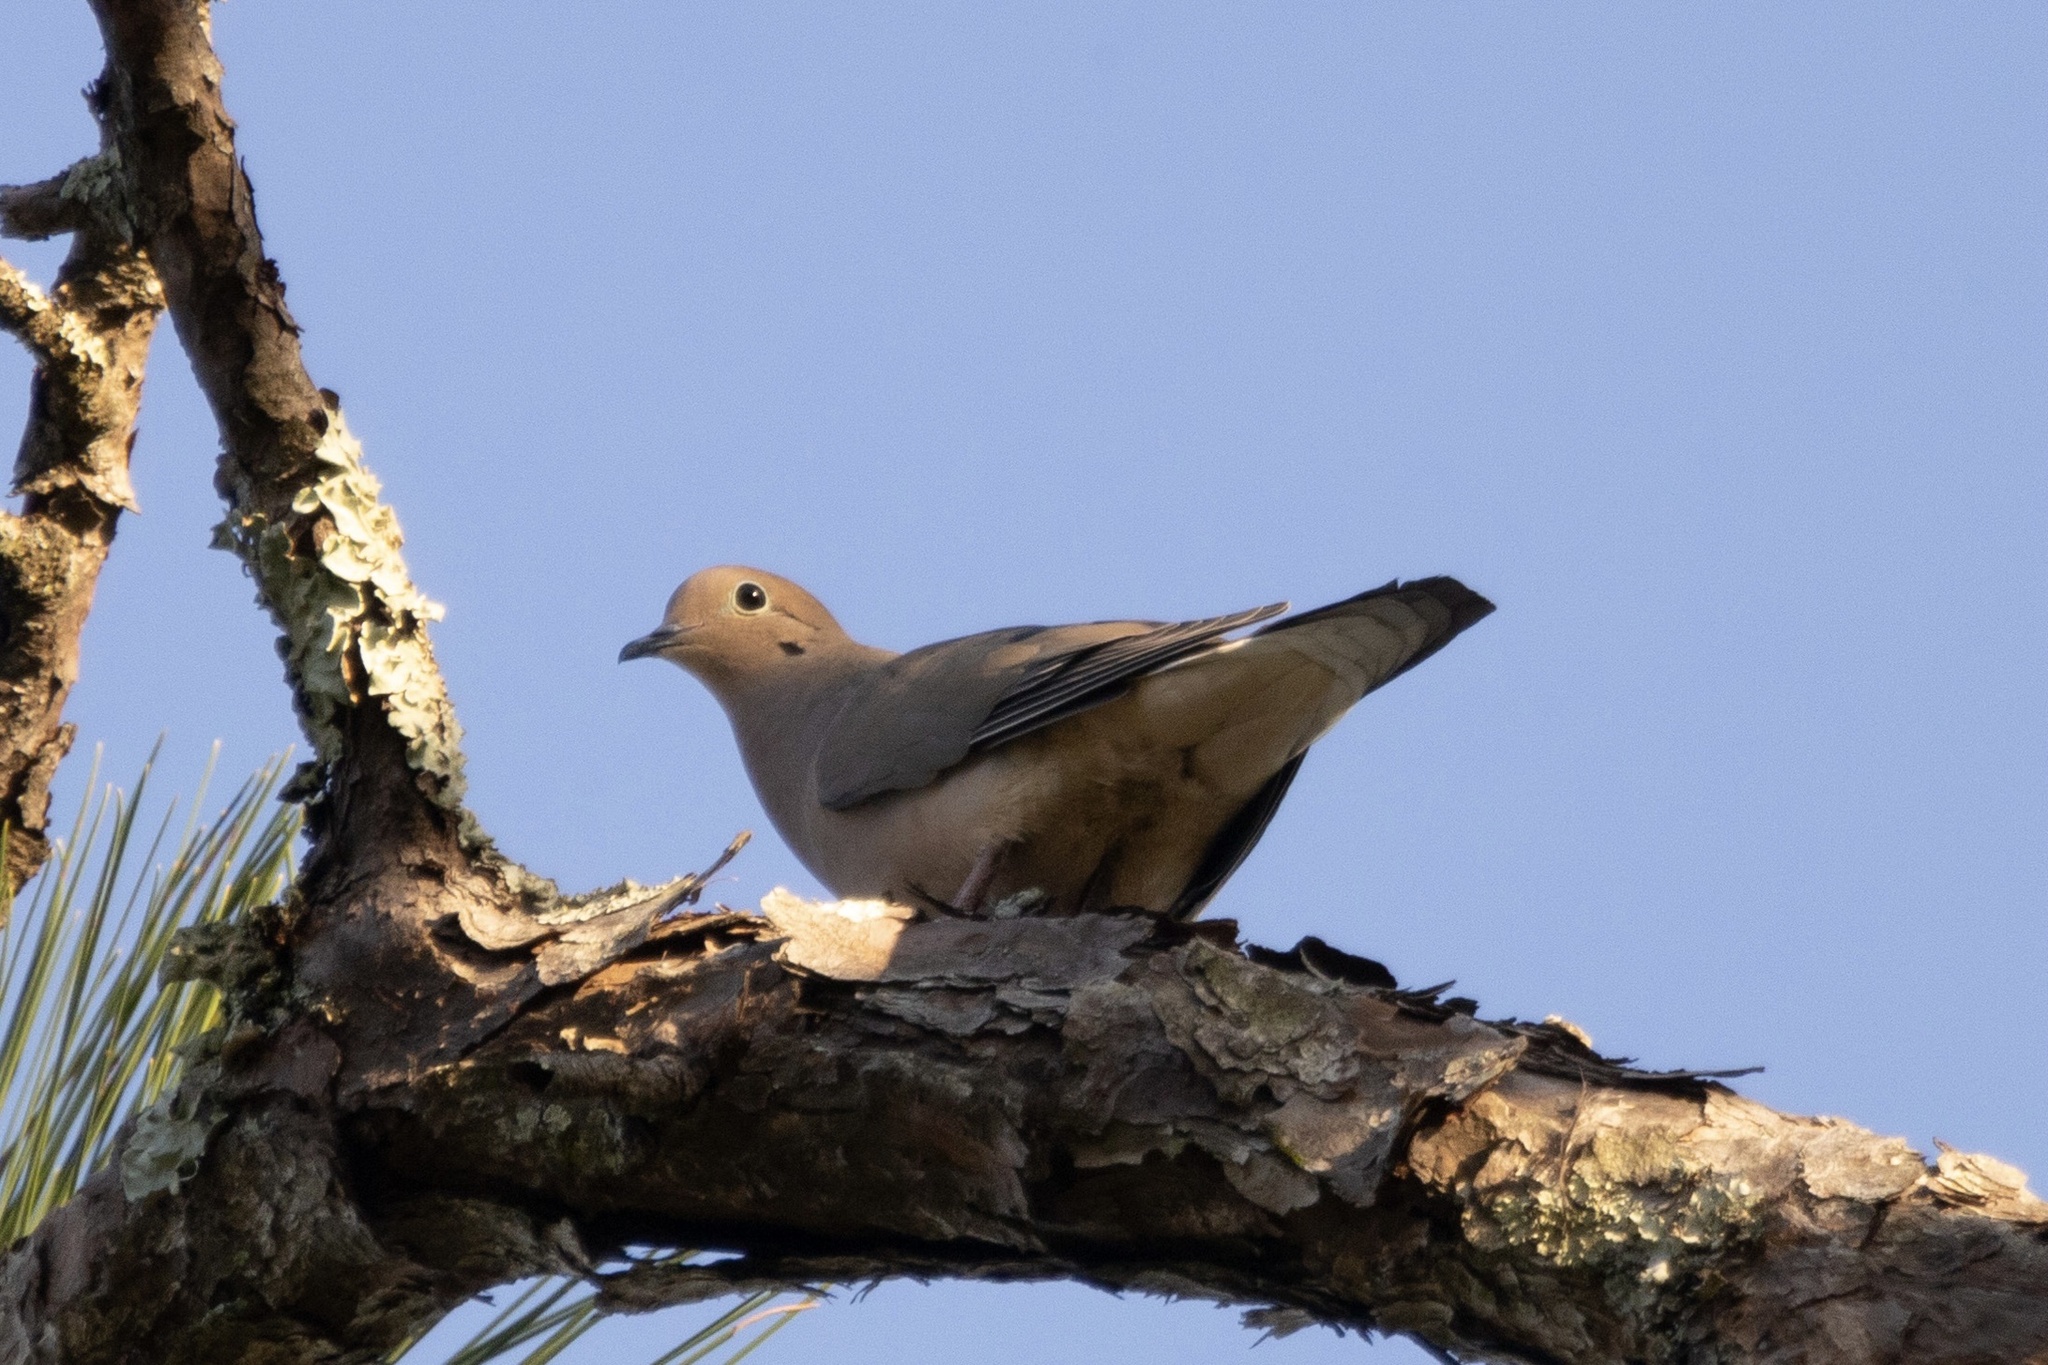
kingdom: Animalia
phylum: Chordata
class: Aves
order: Columbiformes
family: Columbidae
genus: Zenaida
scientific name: Zenaida macroura
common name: Mourning dove
